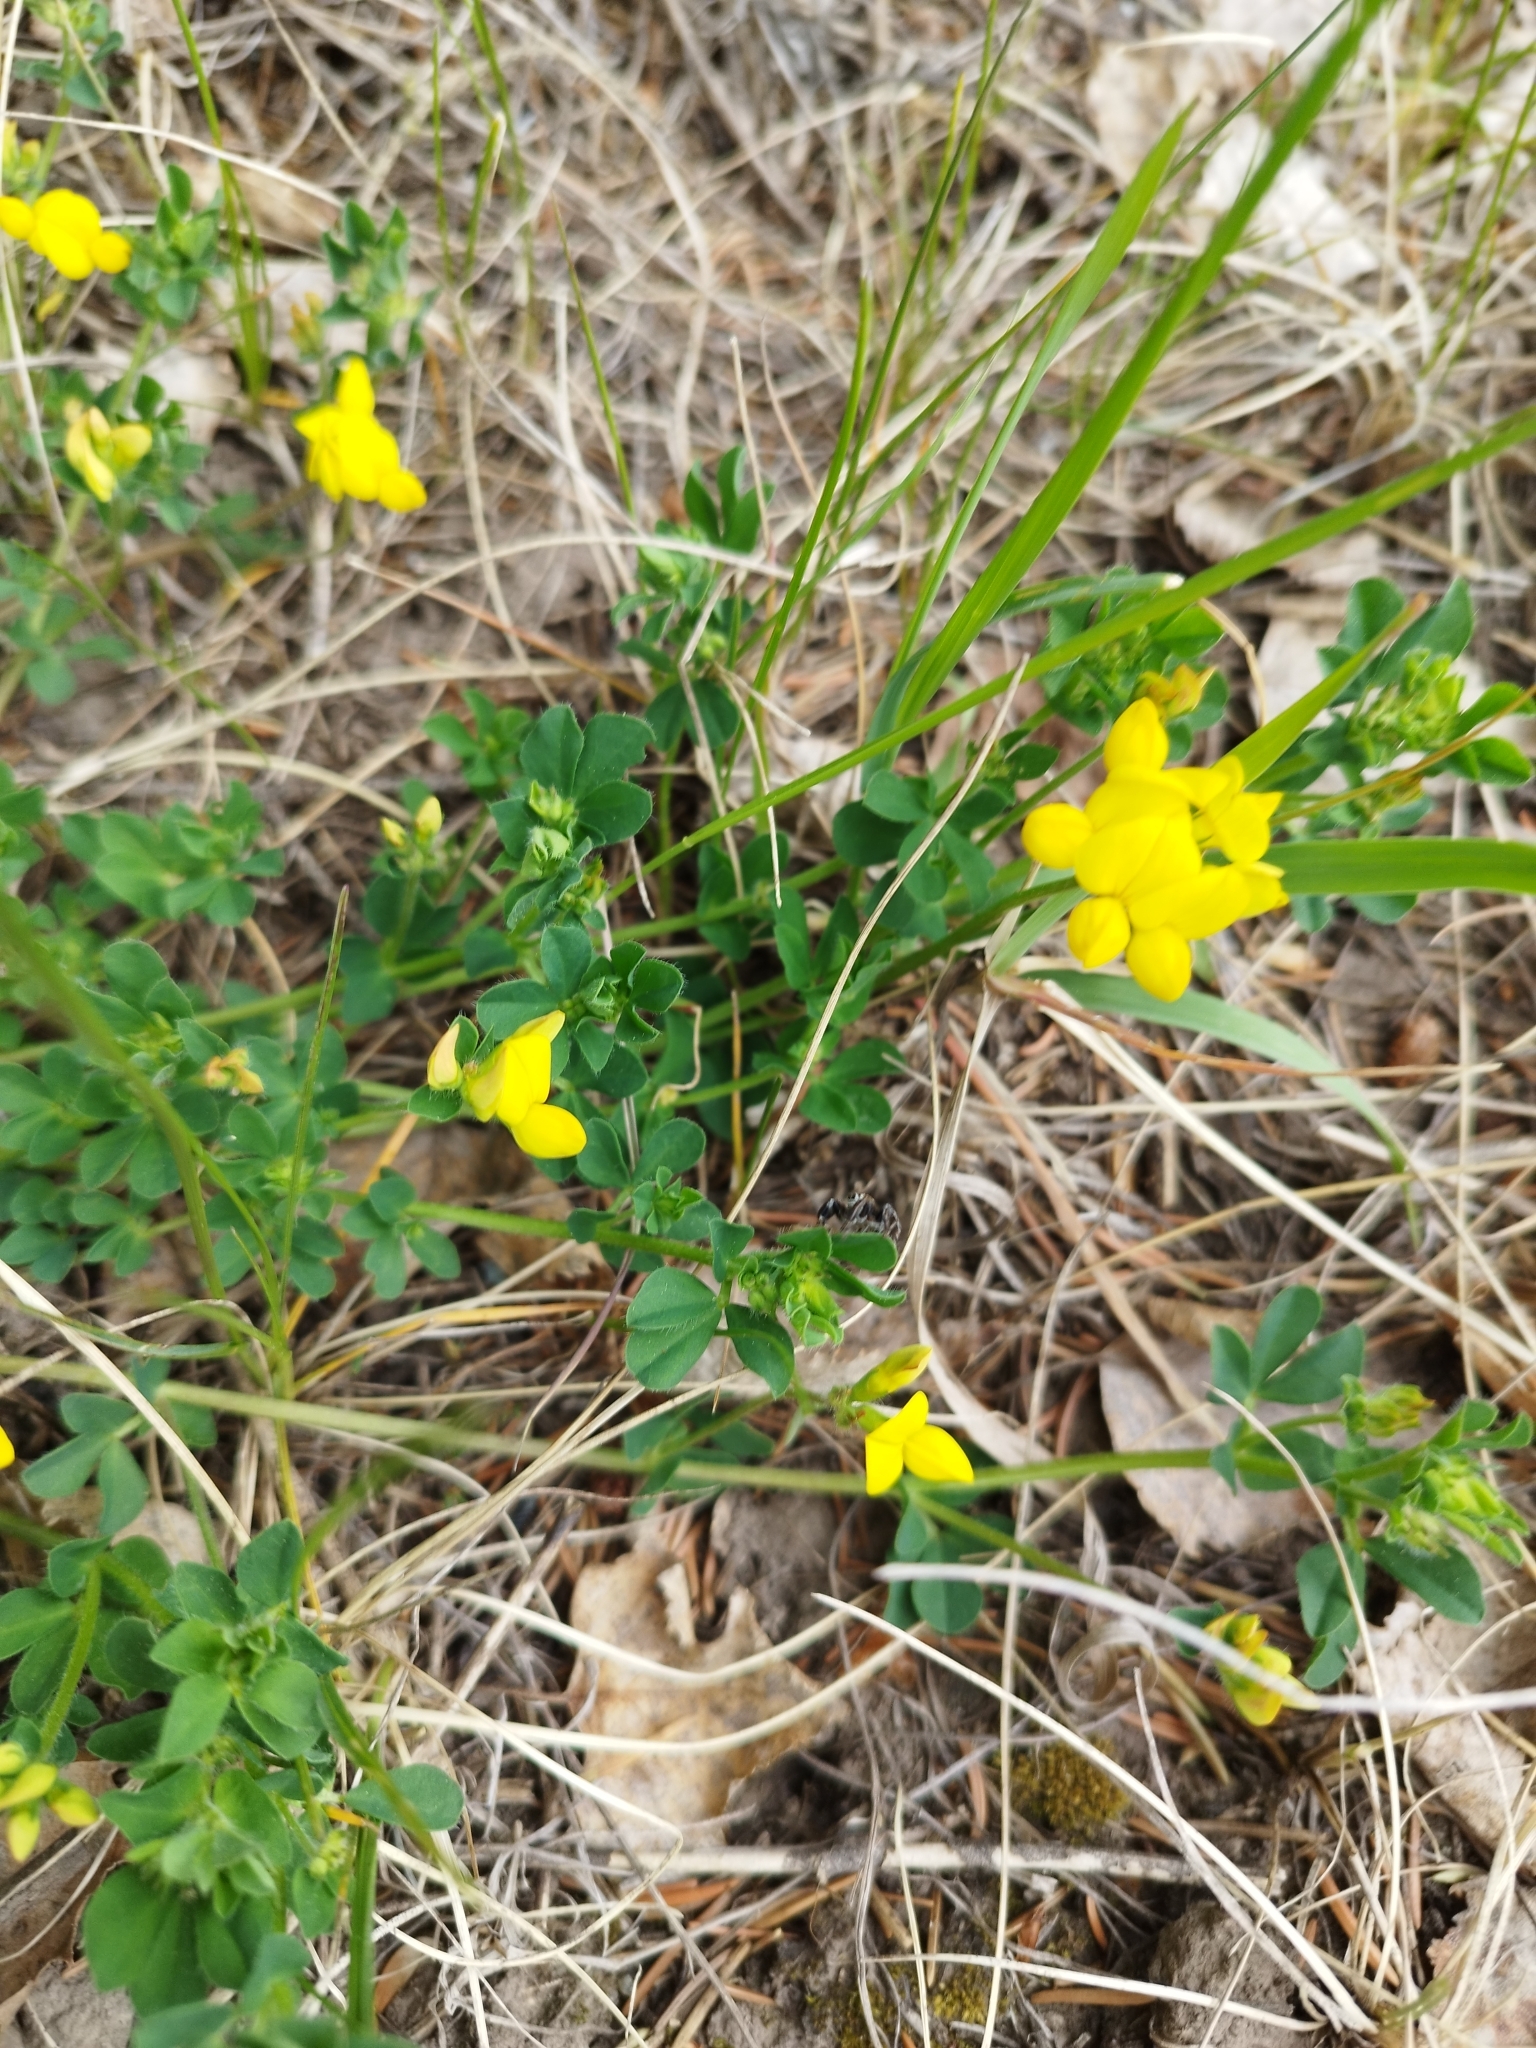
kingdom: Plantae
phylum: Tracheophyta
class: Magnoliopsida
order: Fabales
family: Fabaceae
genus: Lotus
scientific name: Lotus corniculatus
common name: Common bird's-foot-trefoil
